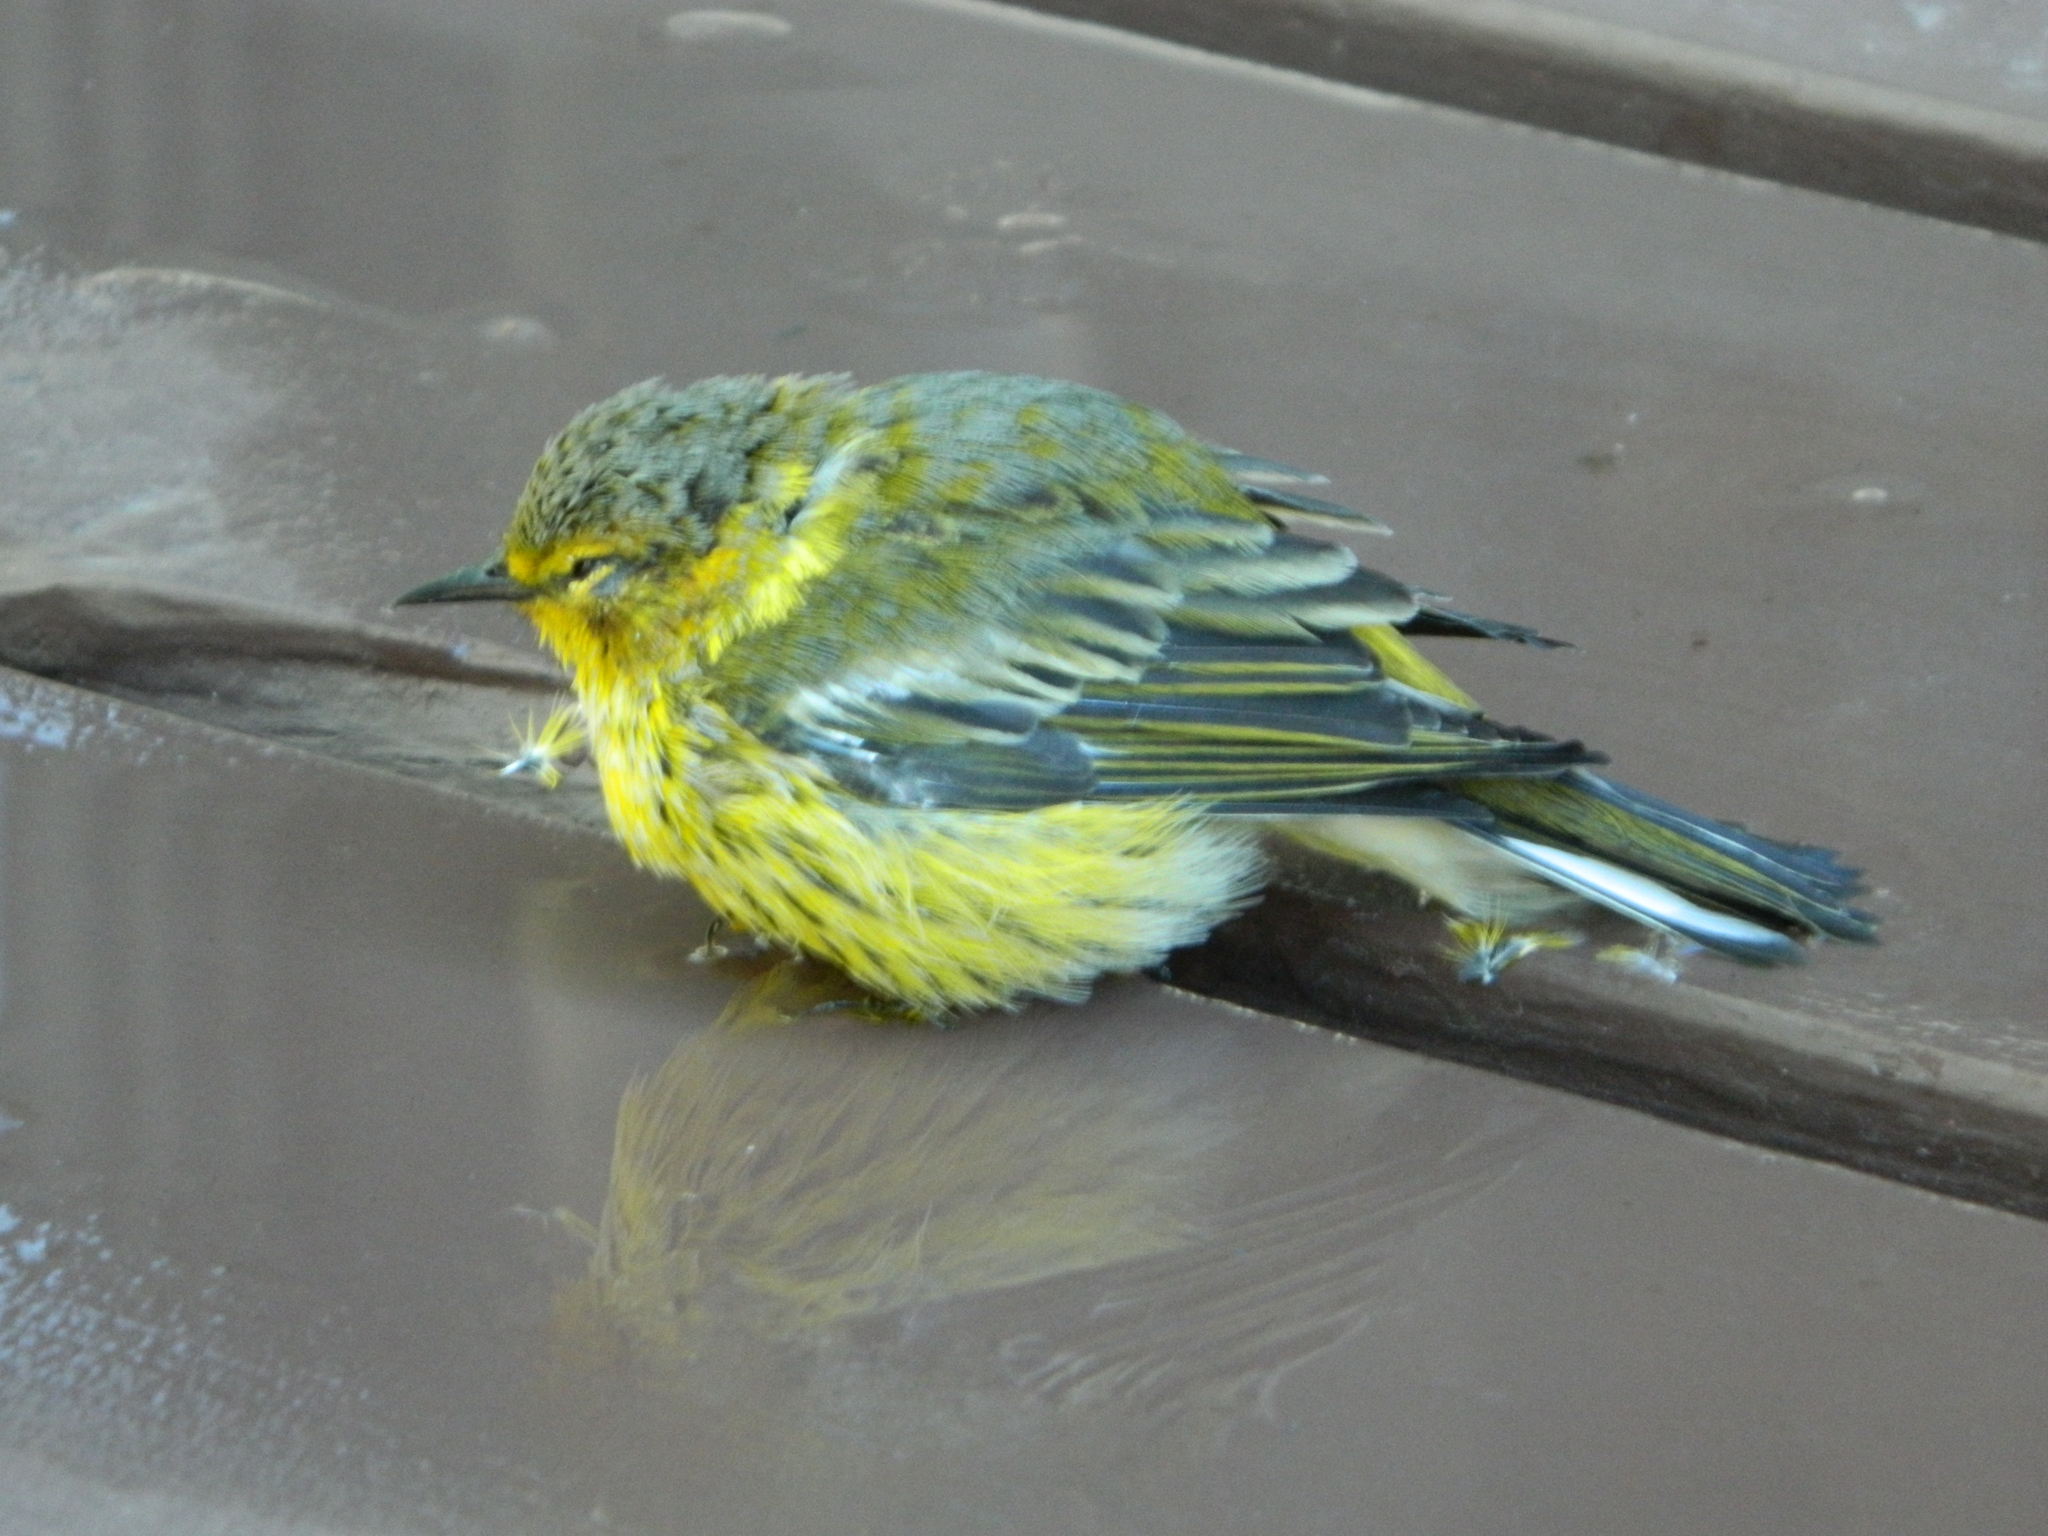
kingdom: Animalia
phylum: Chordata
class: Aves
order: Passeriformes
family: Parulidae
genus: Setophaga
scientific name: Setophaga tigrina
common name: Cape may warbler
